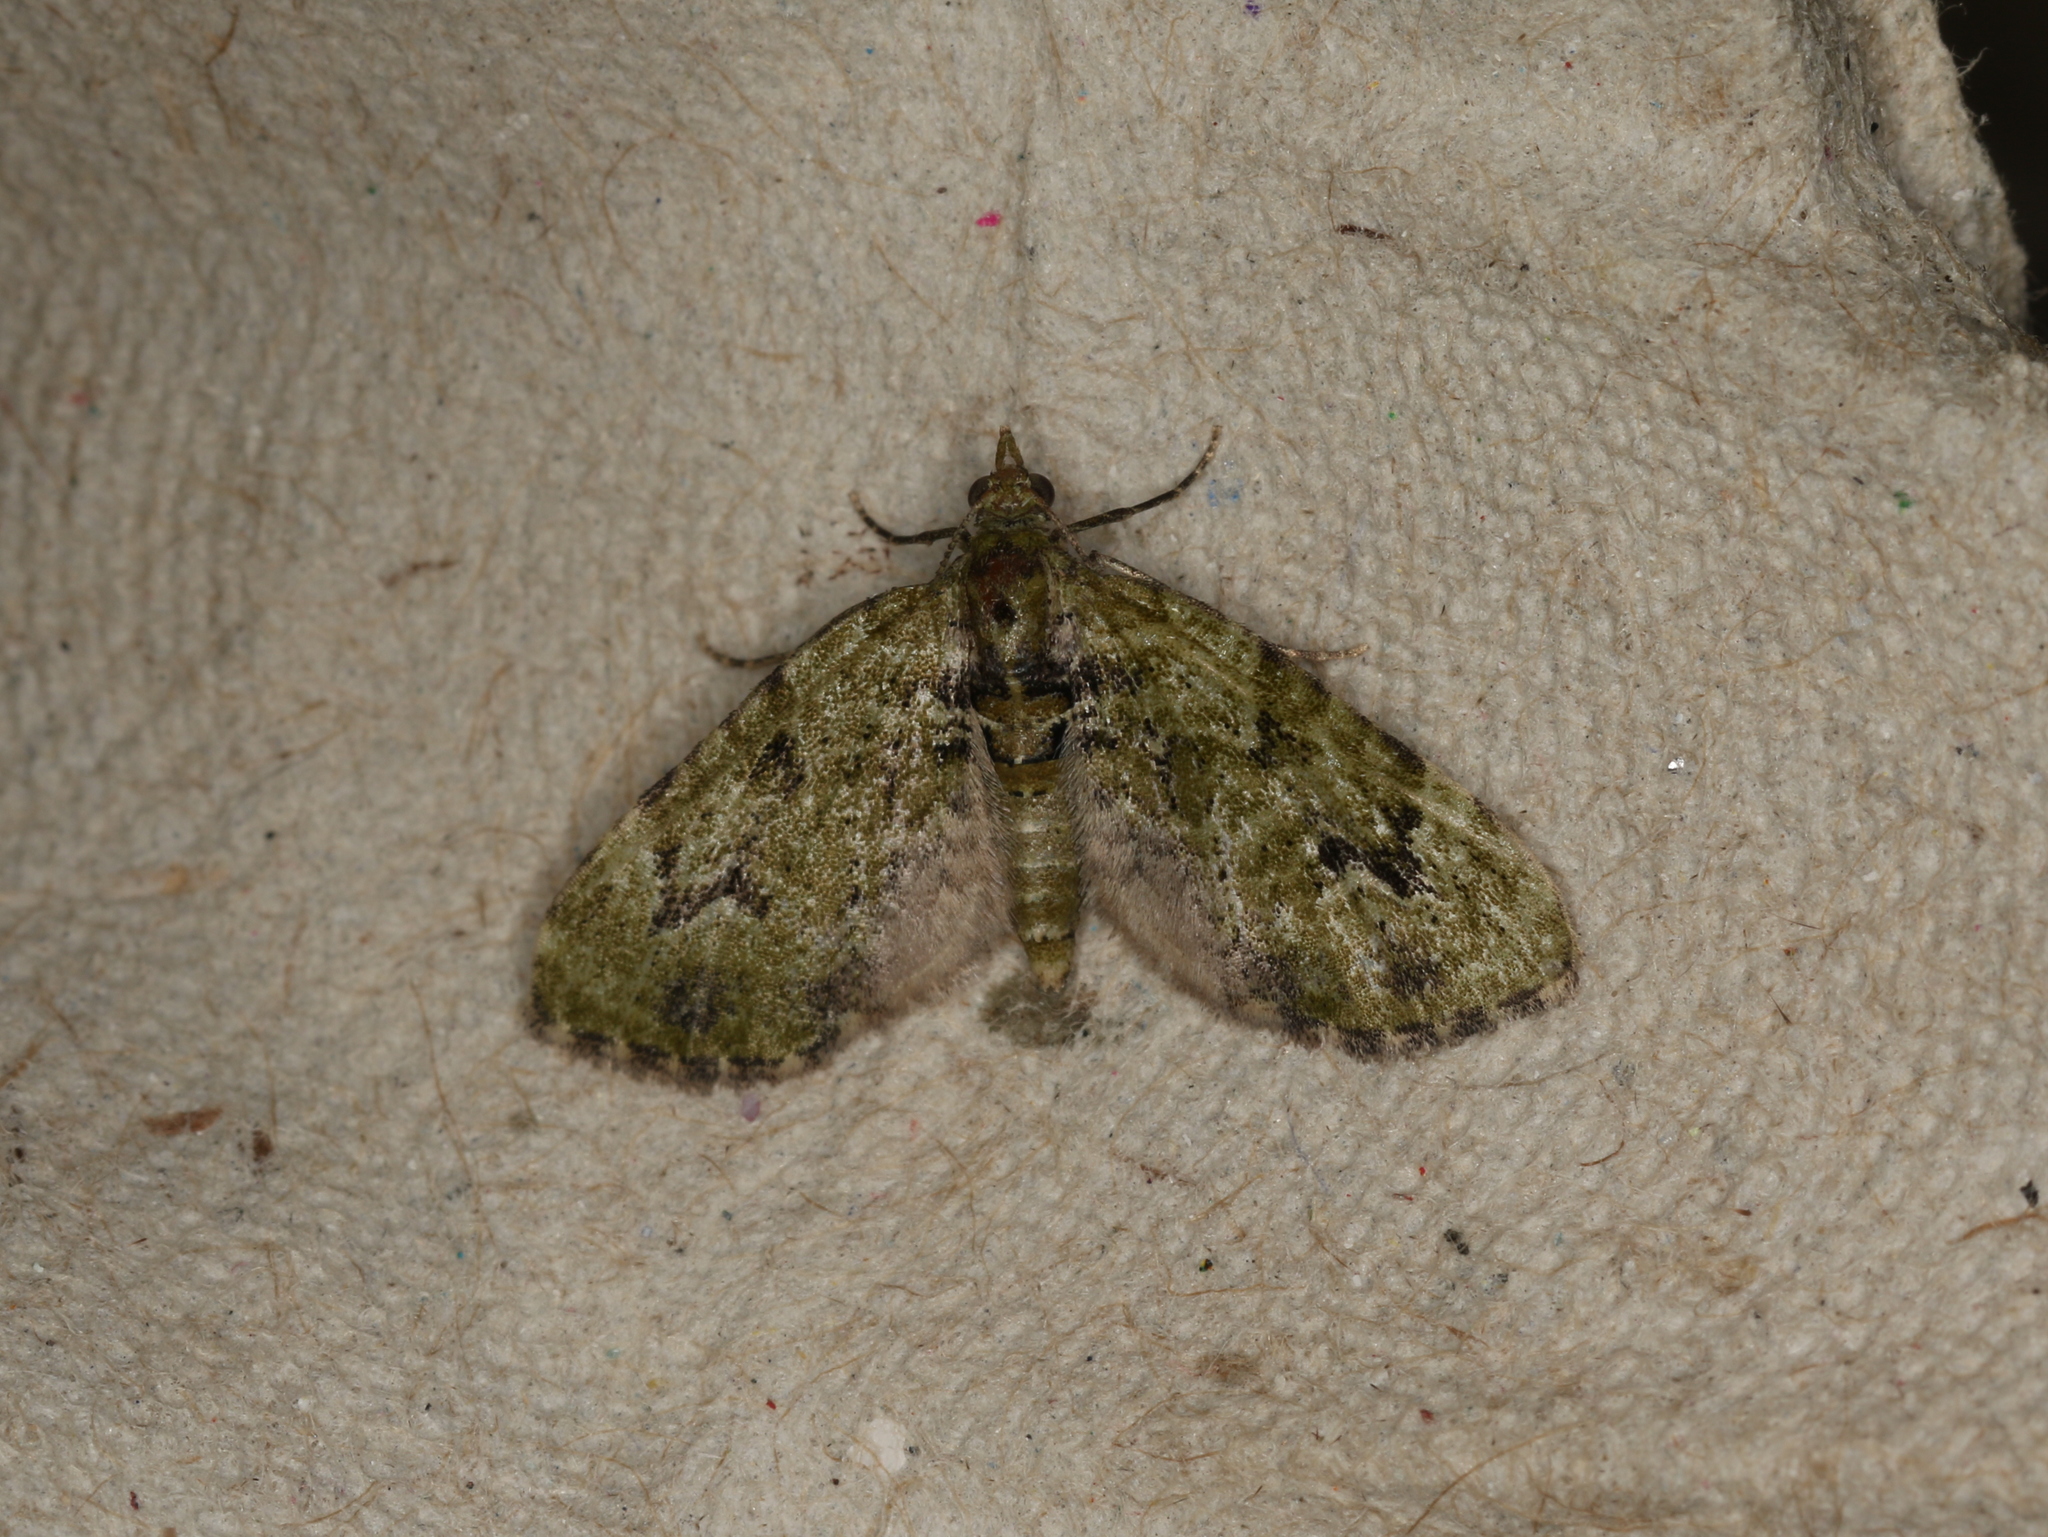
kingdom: Animalia
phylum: Arthropoda
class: Insecta
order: Lepidoptera
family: Geometridae
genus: Chloroclystis
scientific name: Chloroclystis v-ata
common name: V-pug
